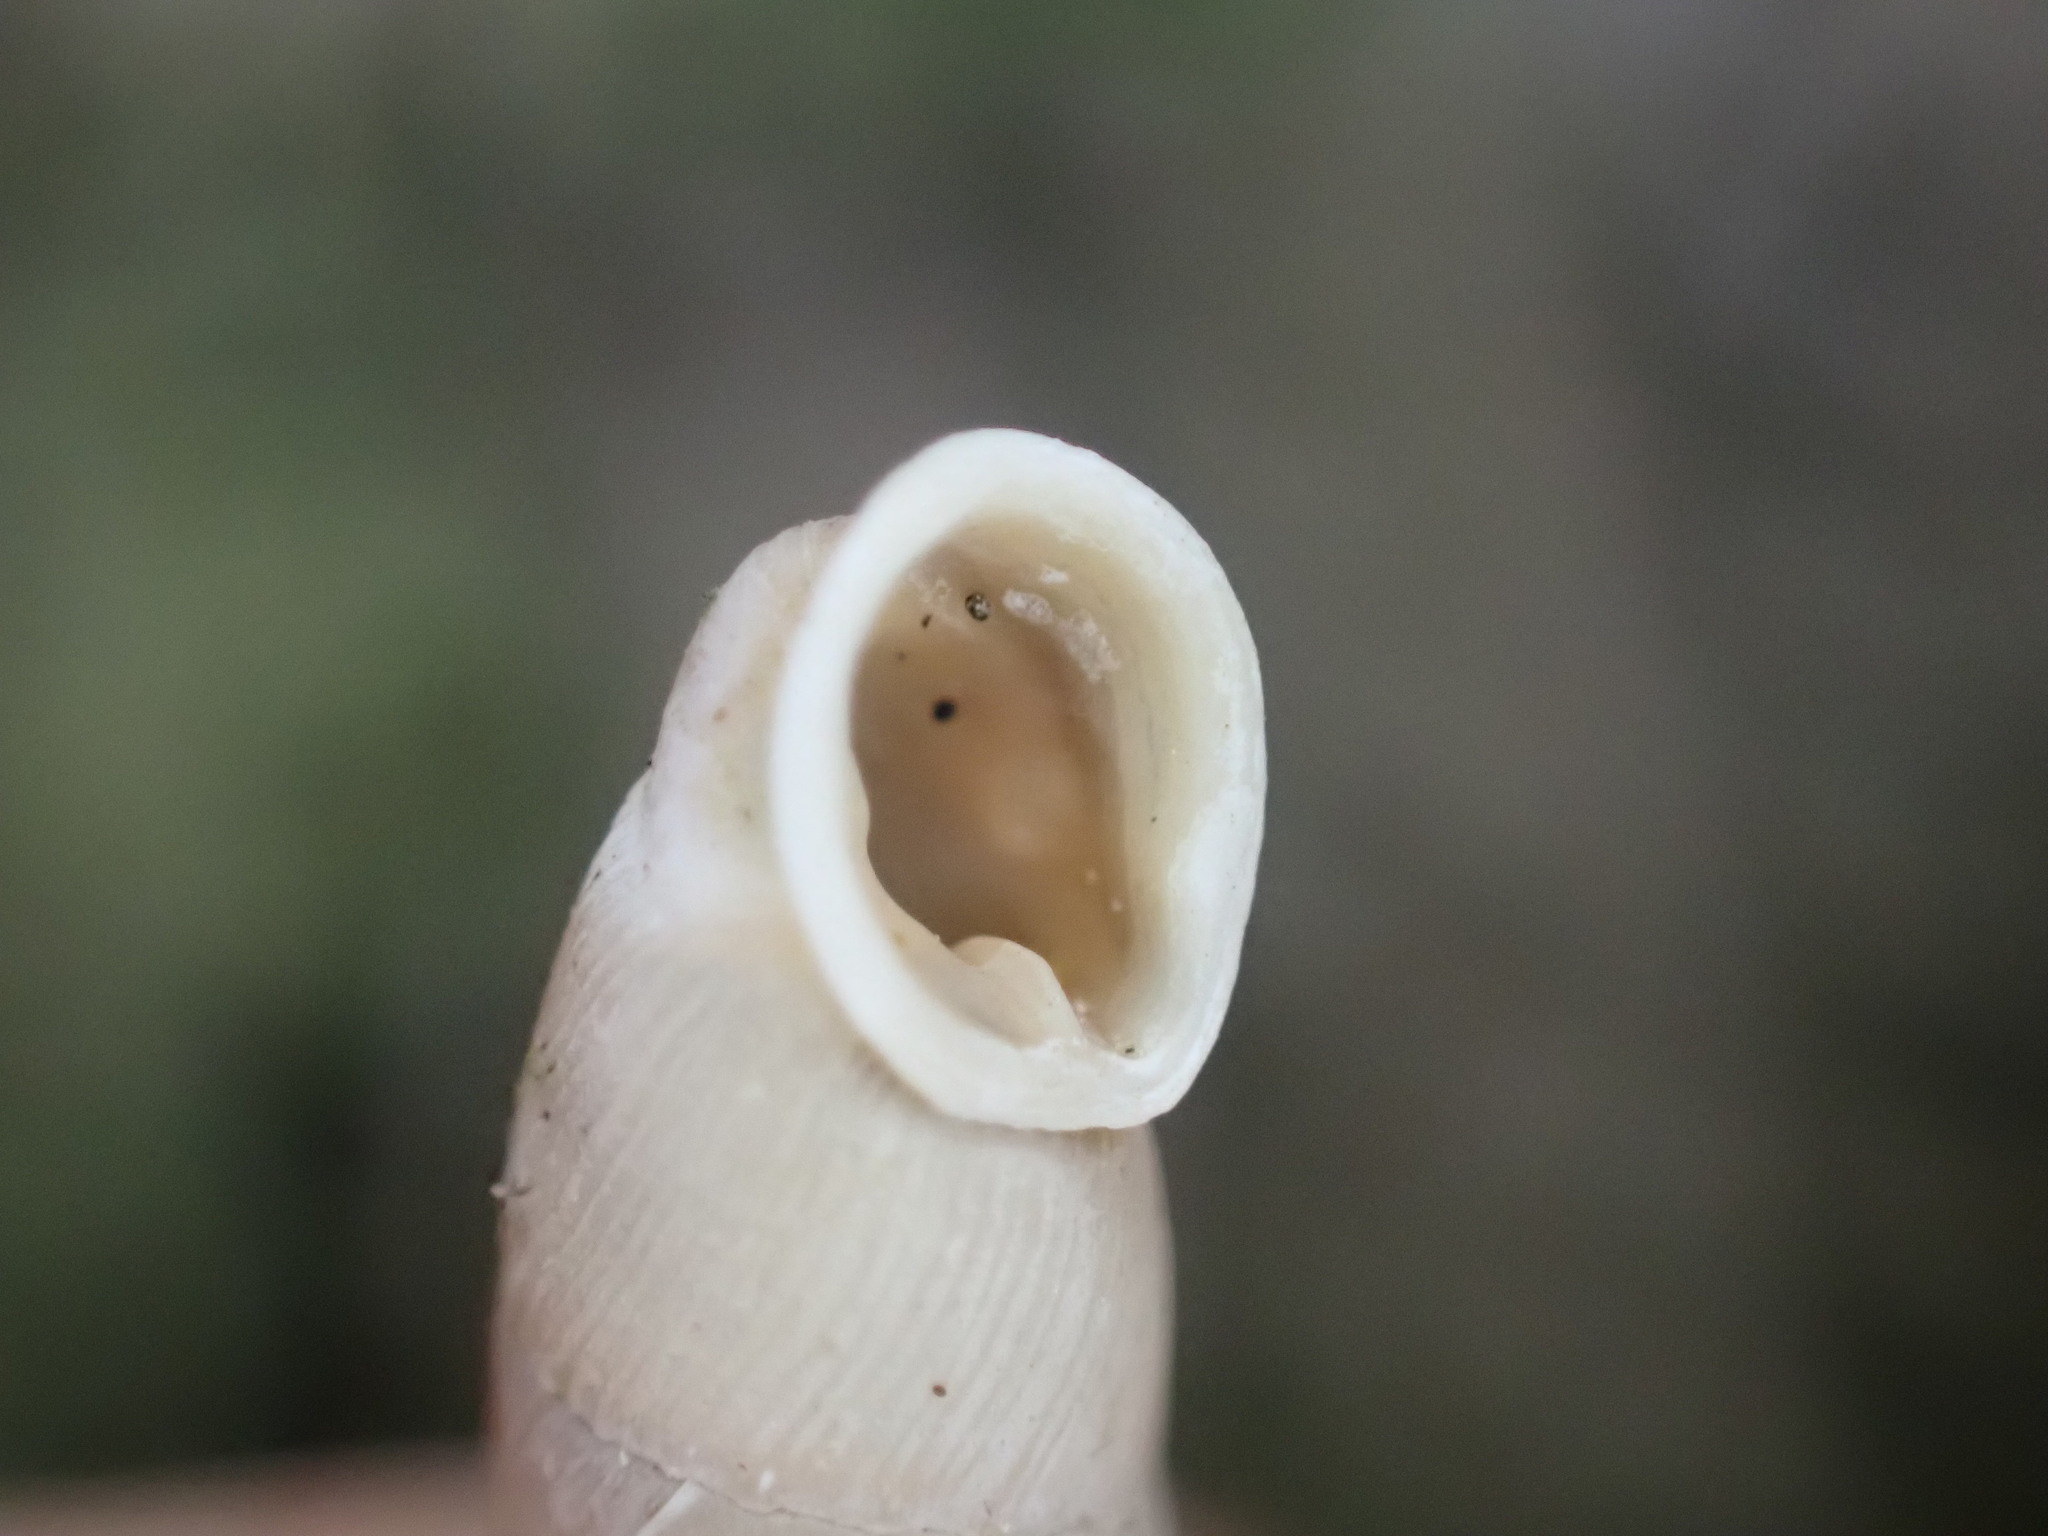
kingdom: Animalia
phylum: Mollusca
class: Gastropoda
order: Stylommatophora
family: Clausiliidae
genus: Papillifera
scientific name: Papillifera solida
